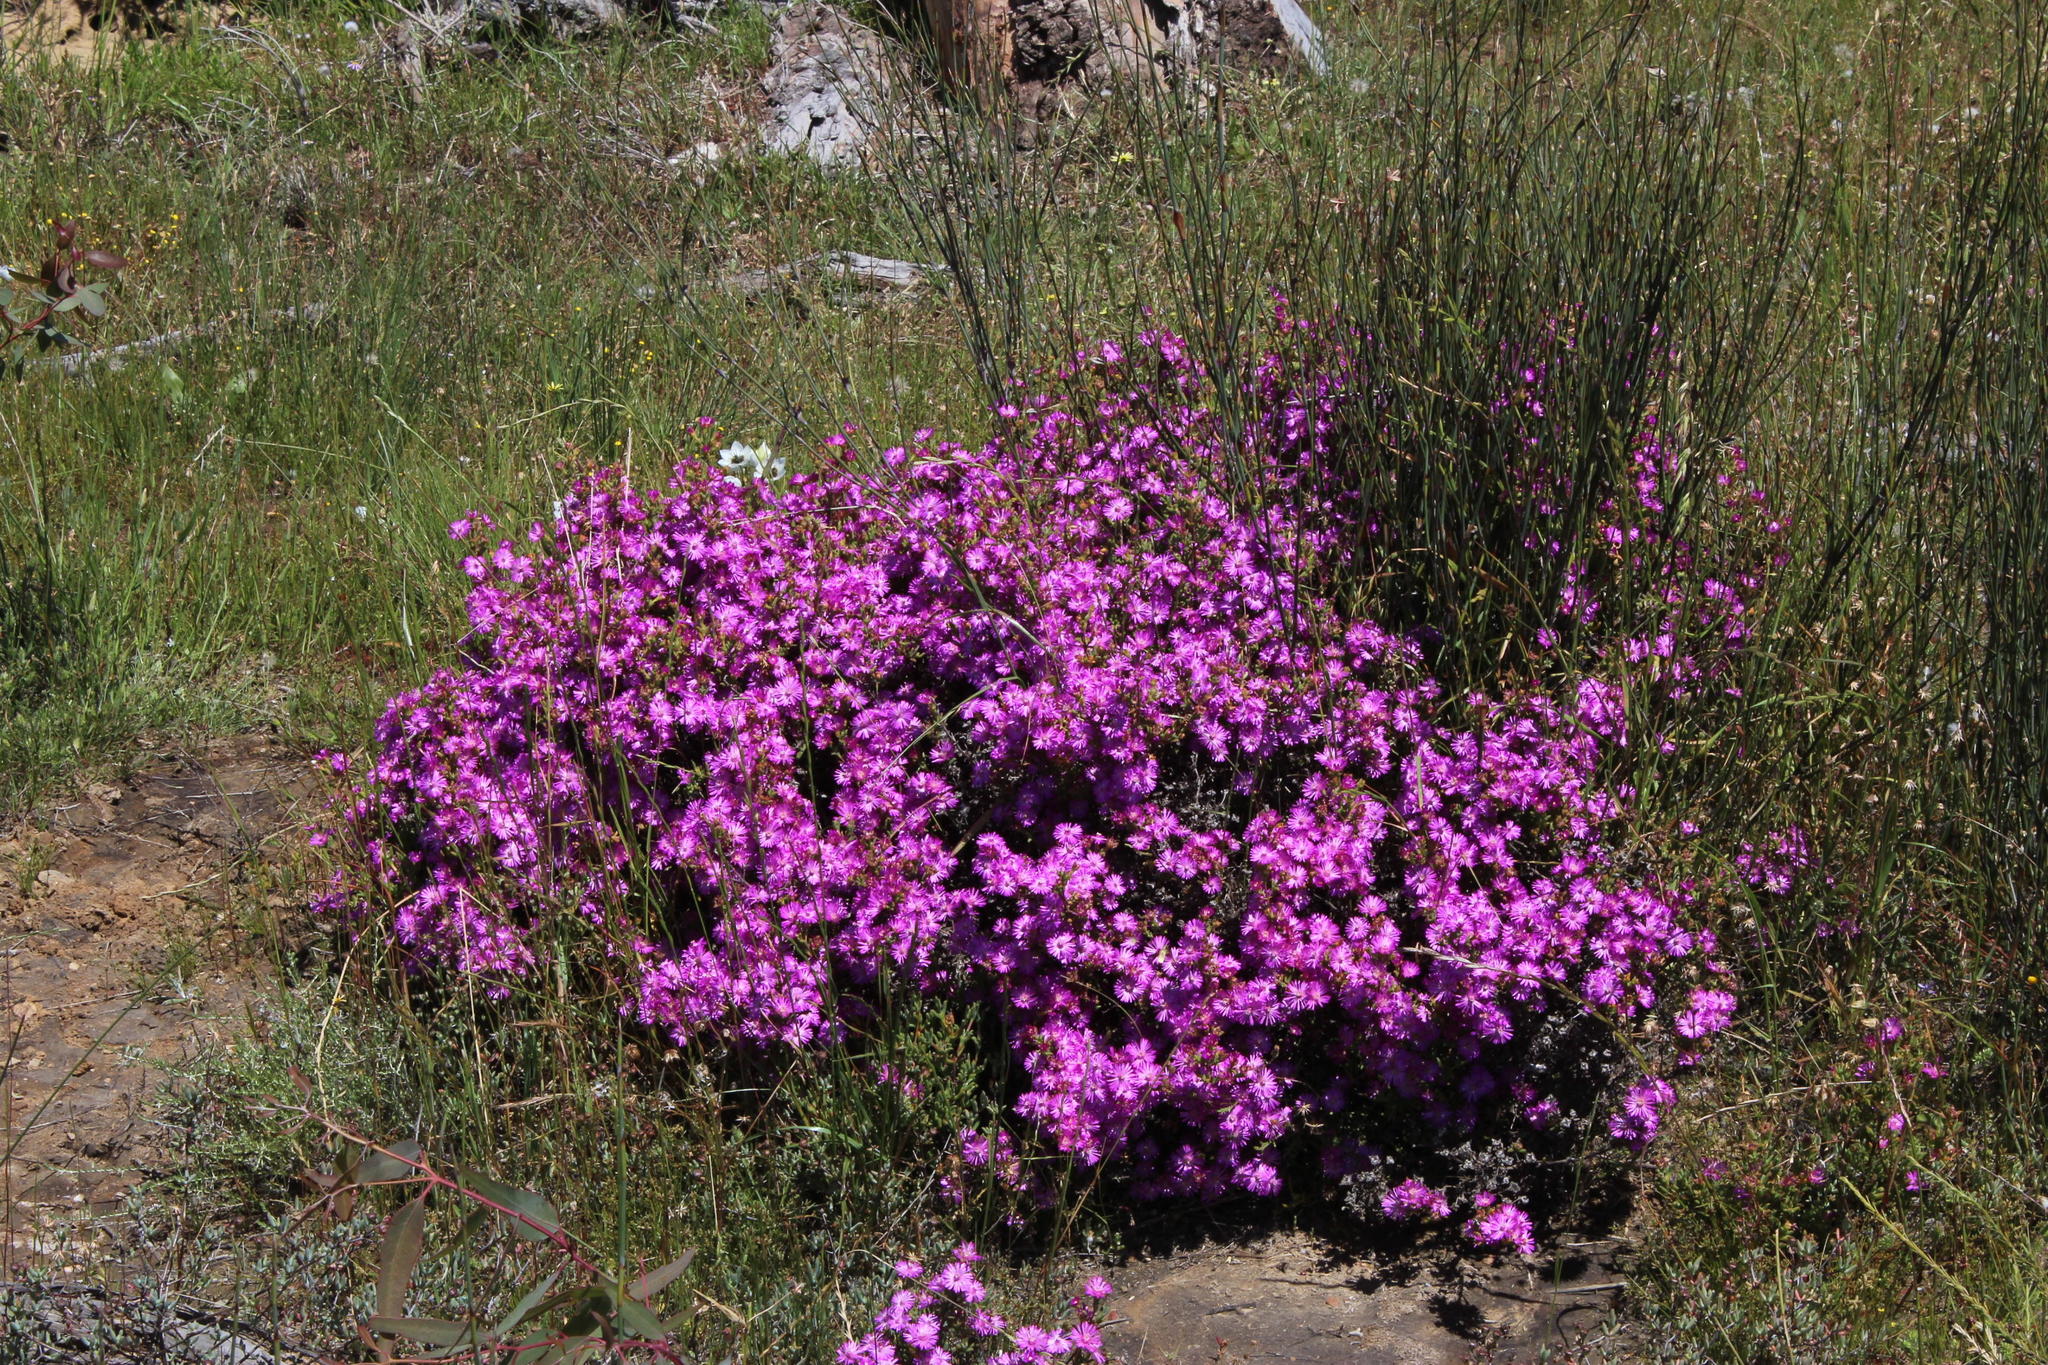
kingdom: Plantae
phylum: Tracheophyta
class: Magnoliopsida
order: Caryophyllales
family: Aizoaceae
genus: Delosperma
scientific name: Delosperma asperulum
